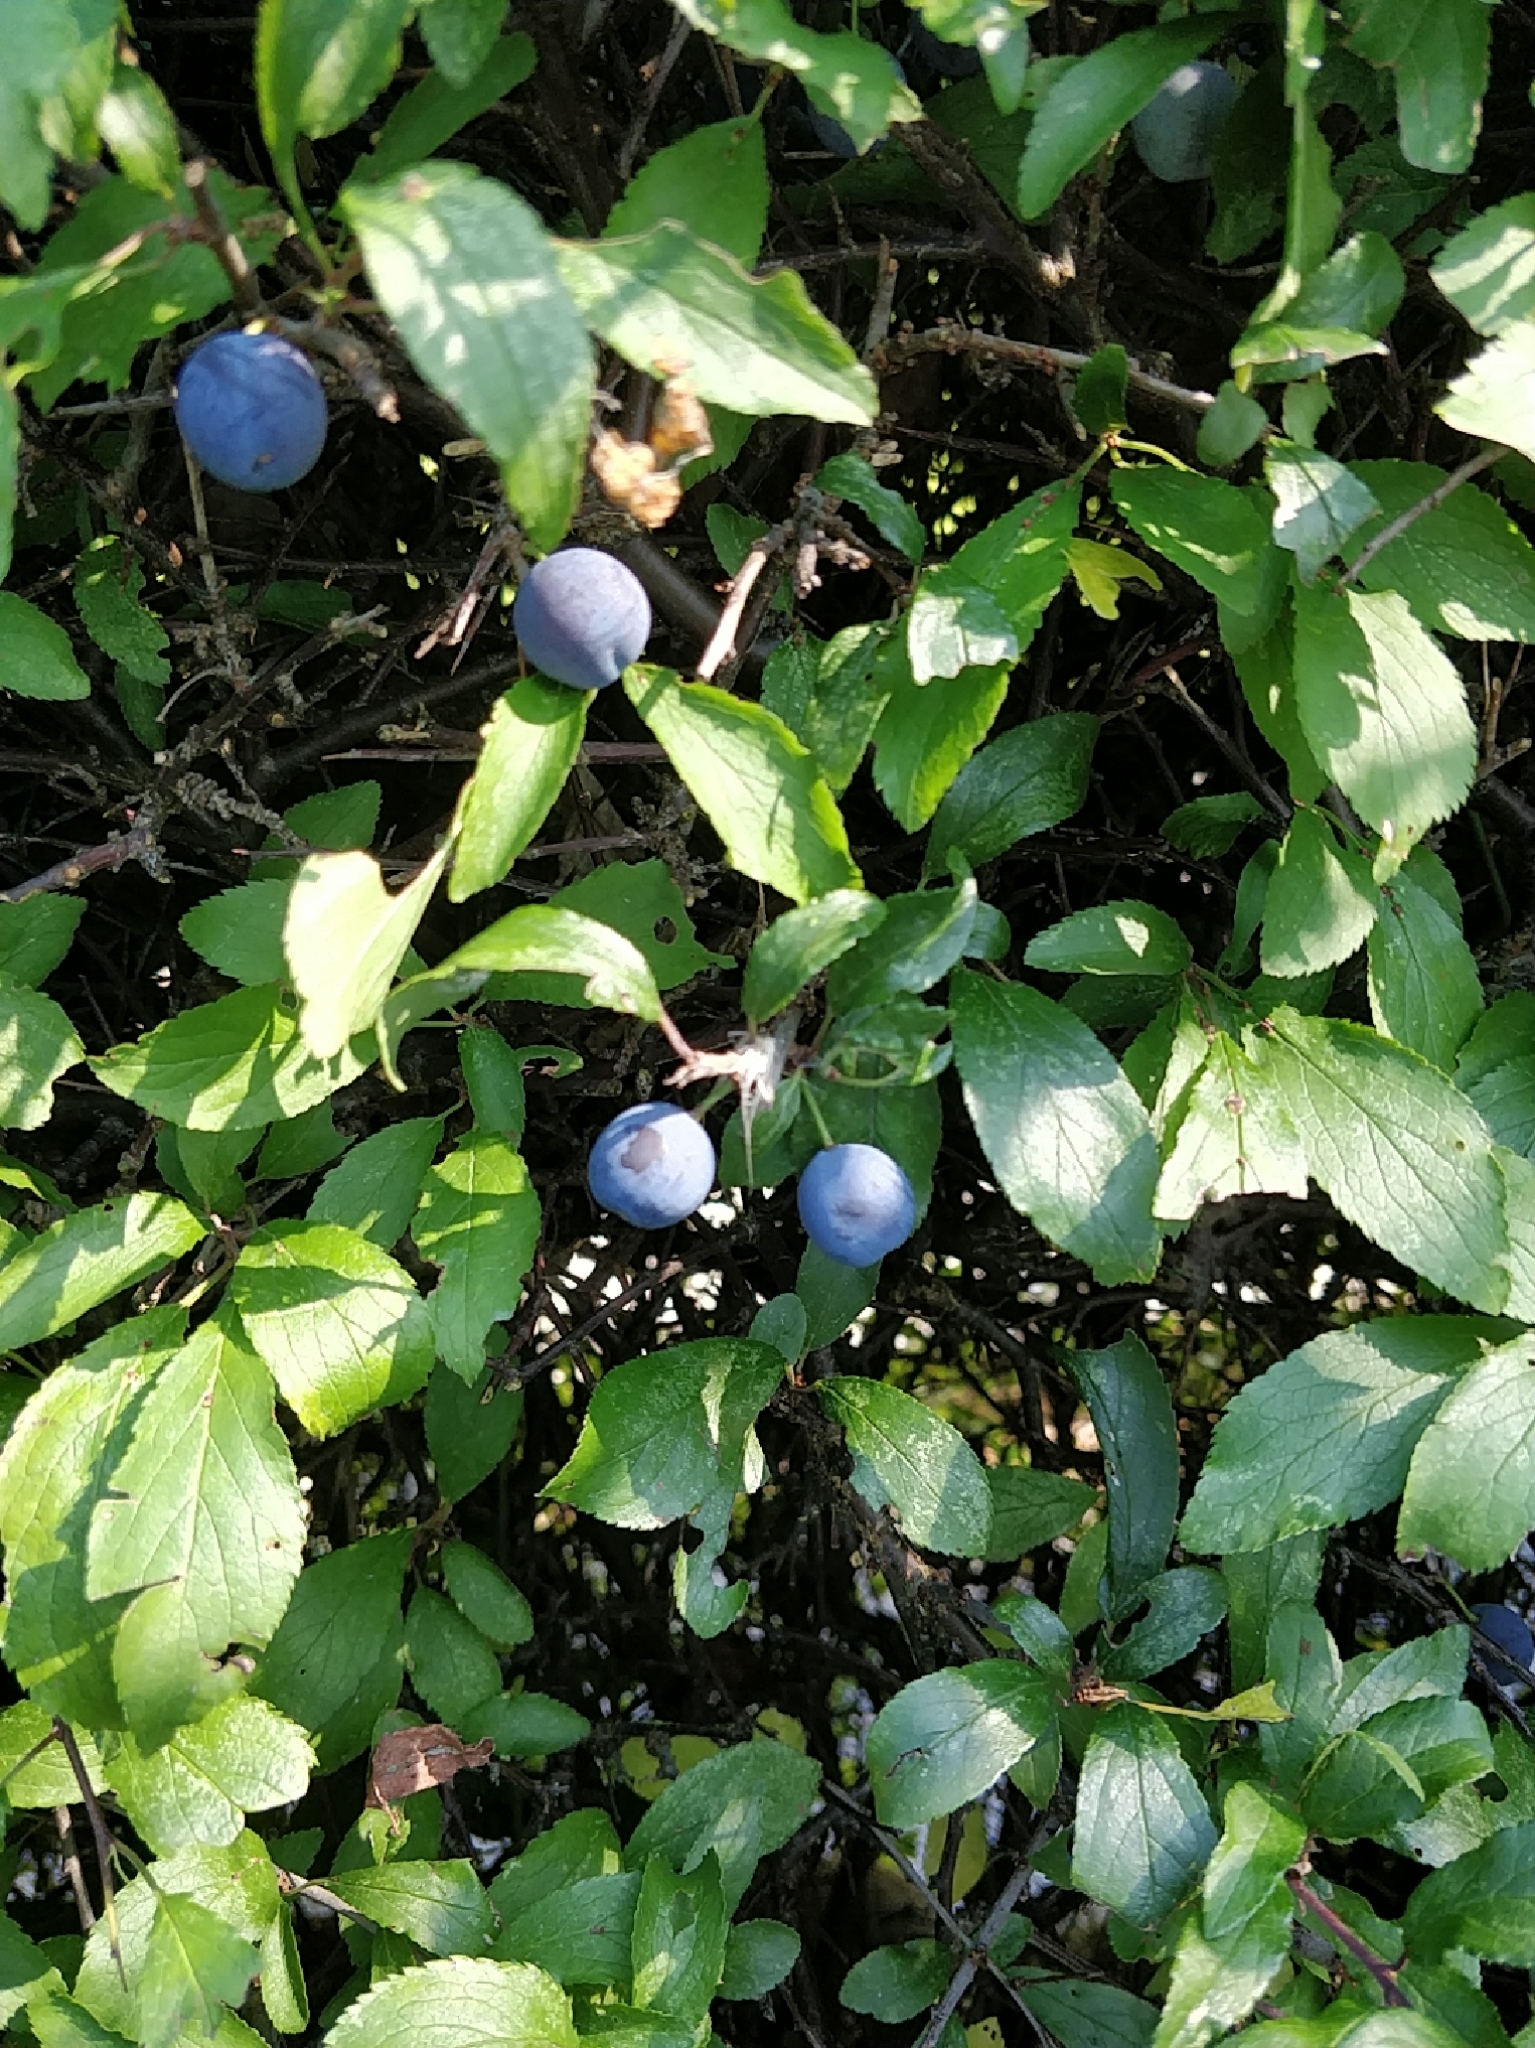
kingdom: Plantae
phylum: Tracheophyta
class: Magnoliopsida
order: Rosales
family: Rosaceae
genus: Prunus
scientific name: Prunus spinosa
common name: Blackthorn
